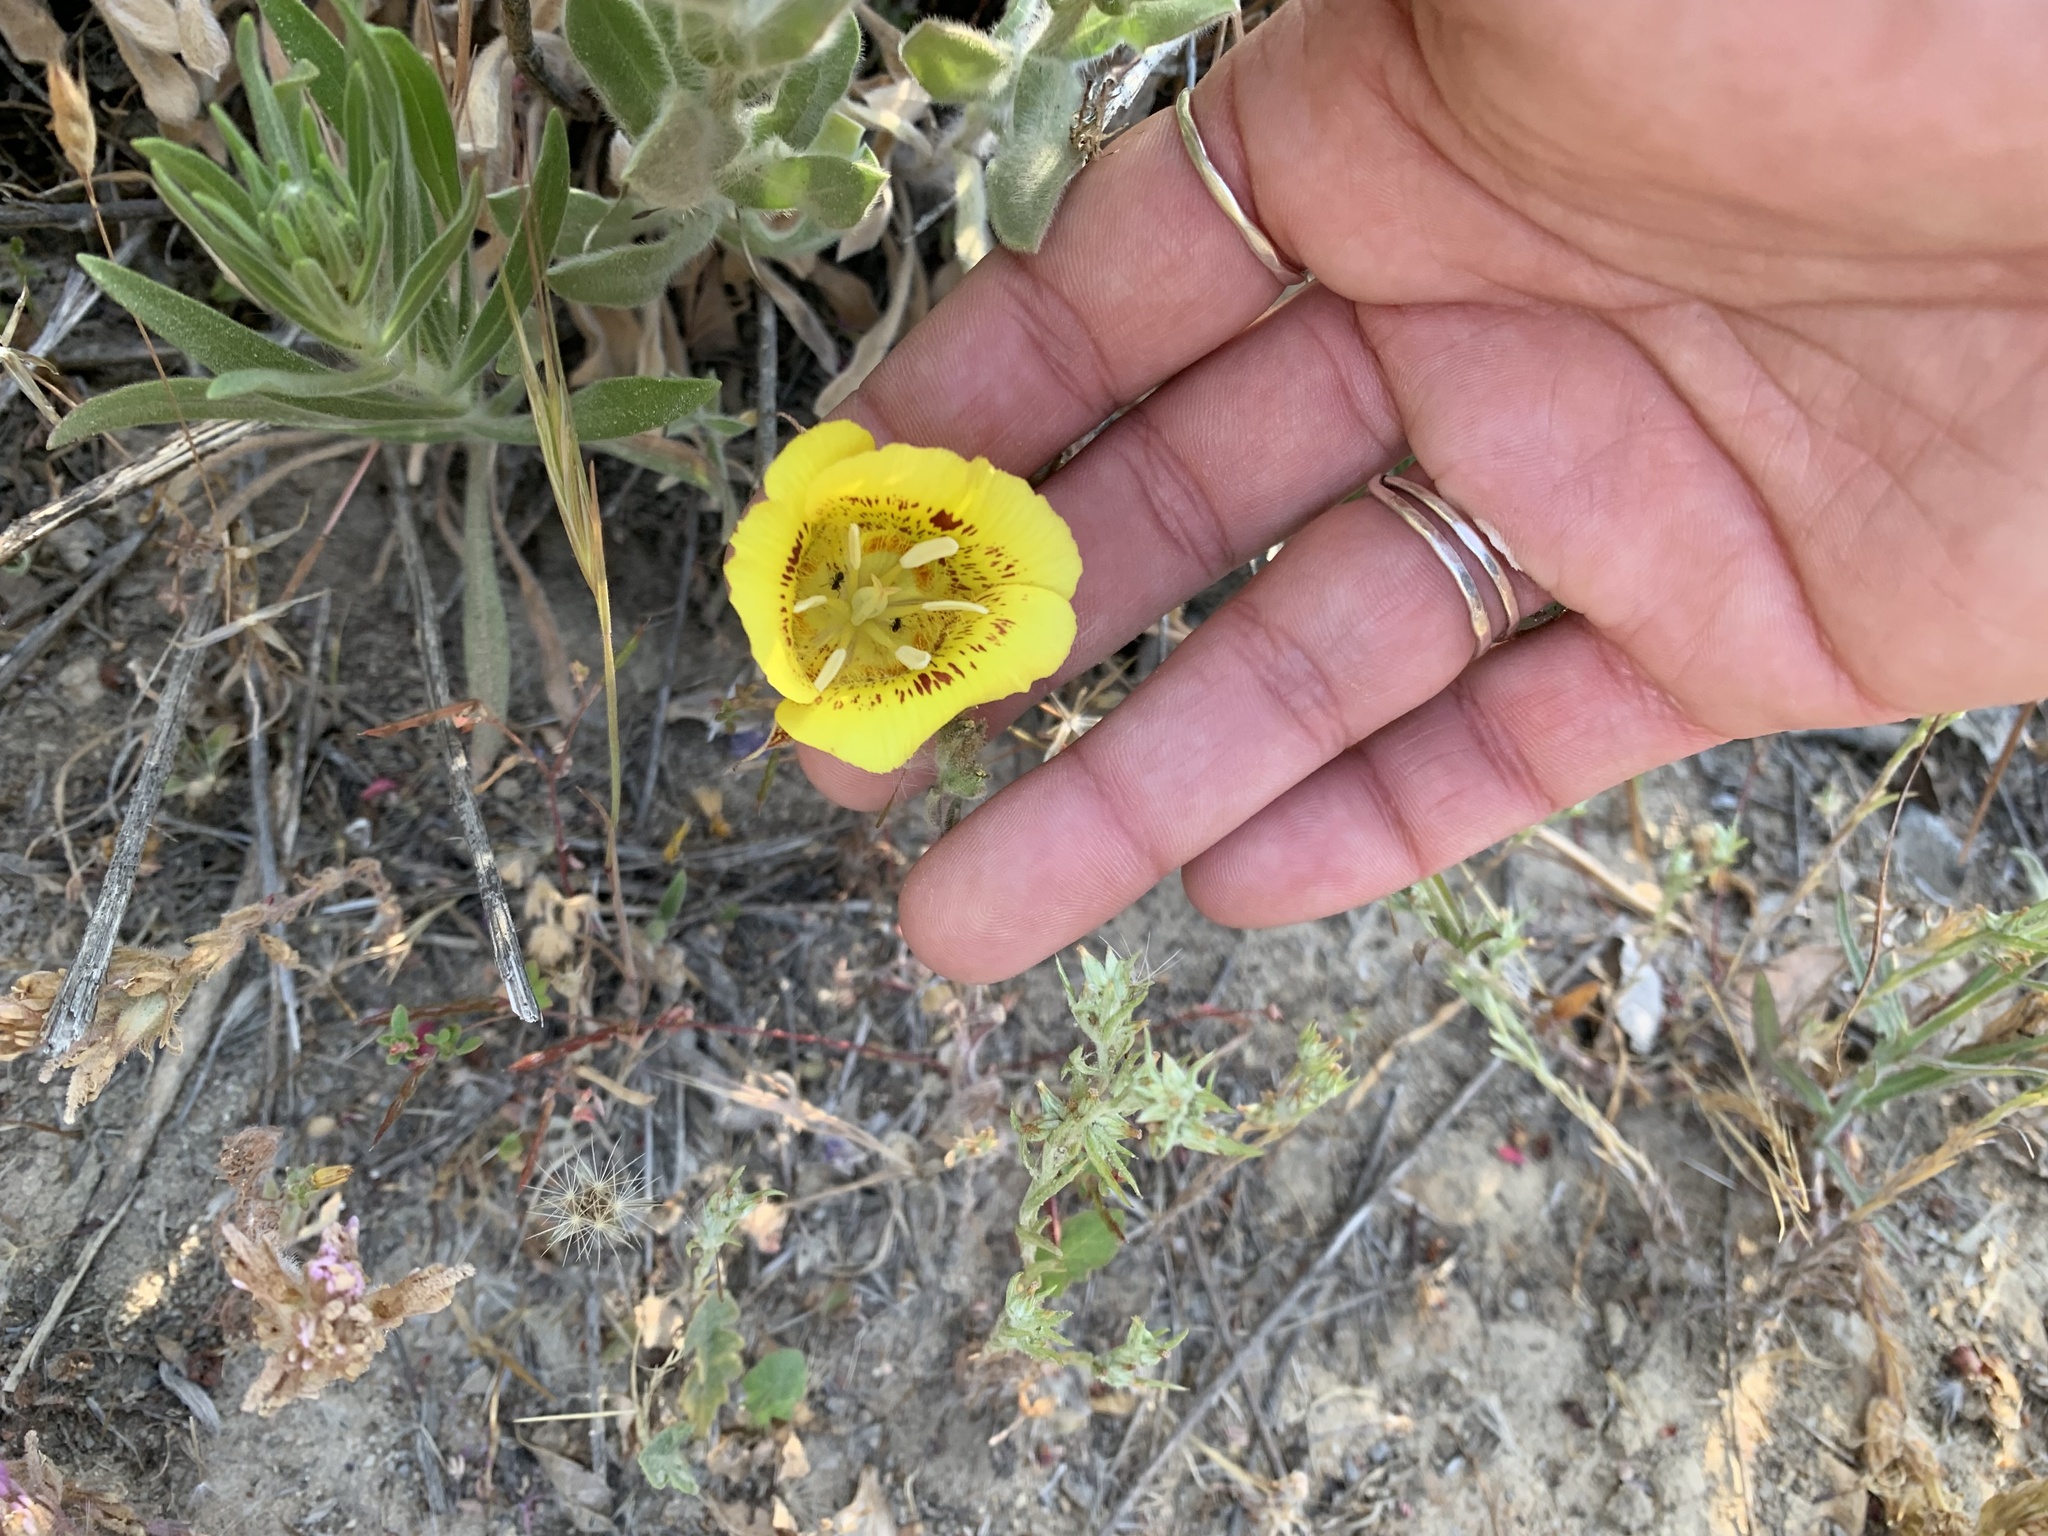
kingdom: Plantae
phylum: Tracheophyta
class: Liliopsida
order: Liliales
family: Liliaceae
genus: Calochortus
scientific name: Calochortus luteus
